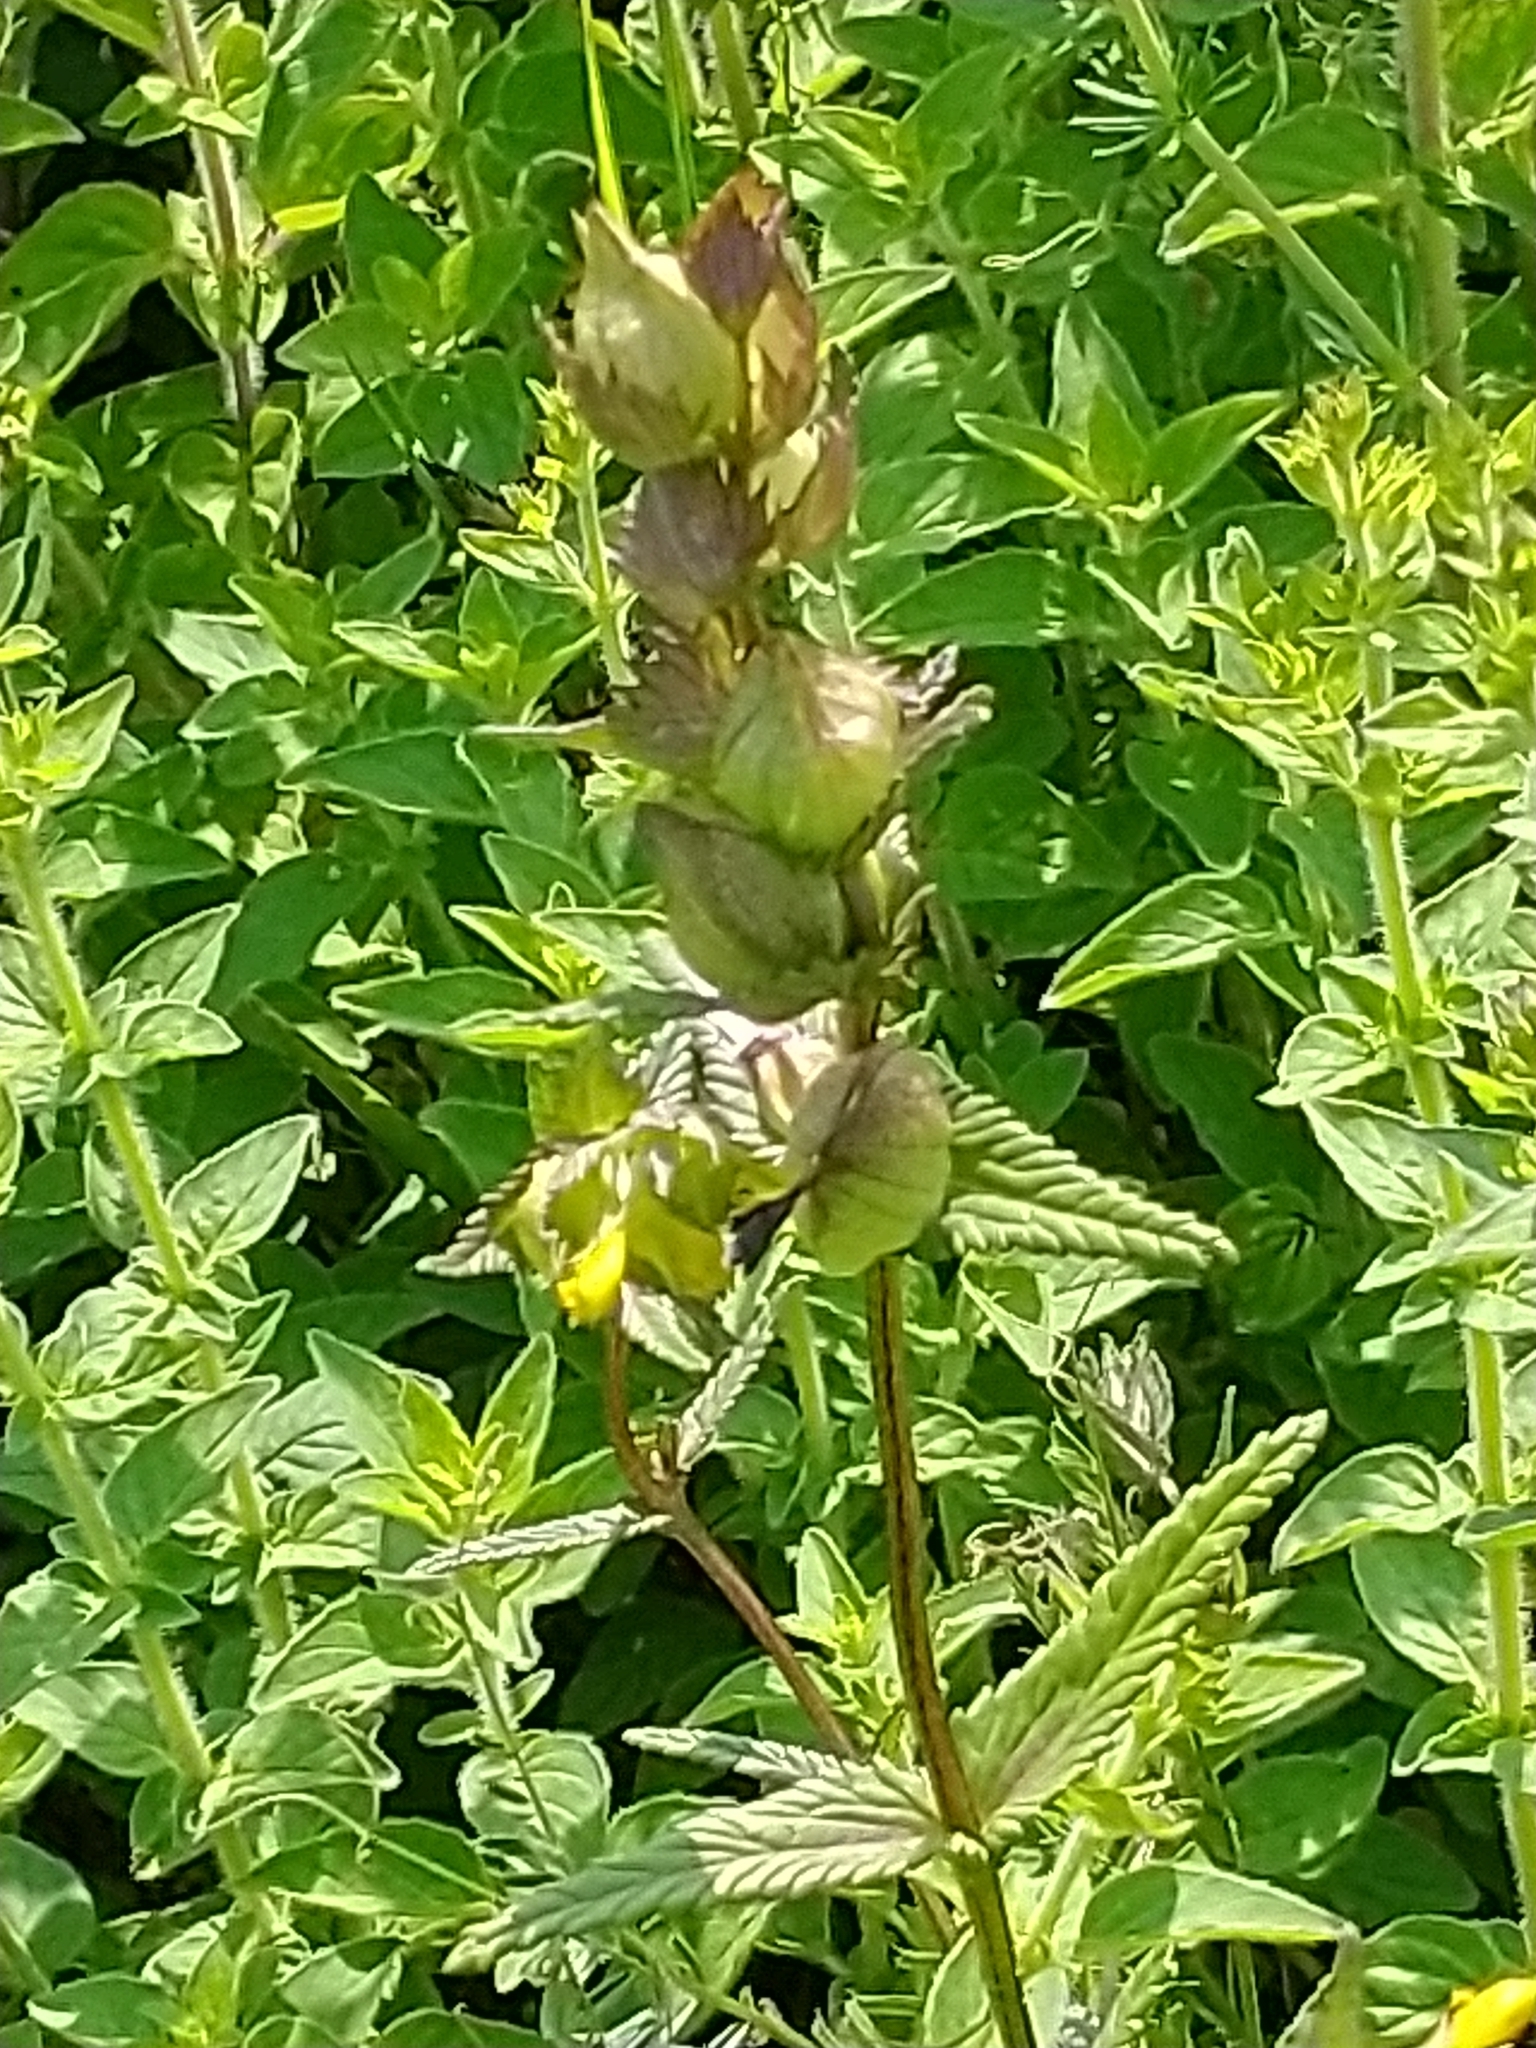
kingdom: Plantae
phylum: Tracheophyta
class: Magnoliopsida
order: Lamiales
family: Orobanchaceae
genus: Rhinanthus
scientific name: Rhinanthus minor
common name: Yellow-rattle
